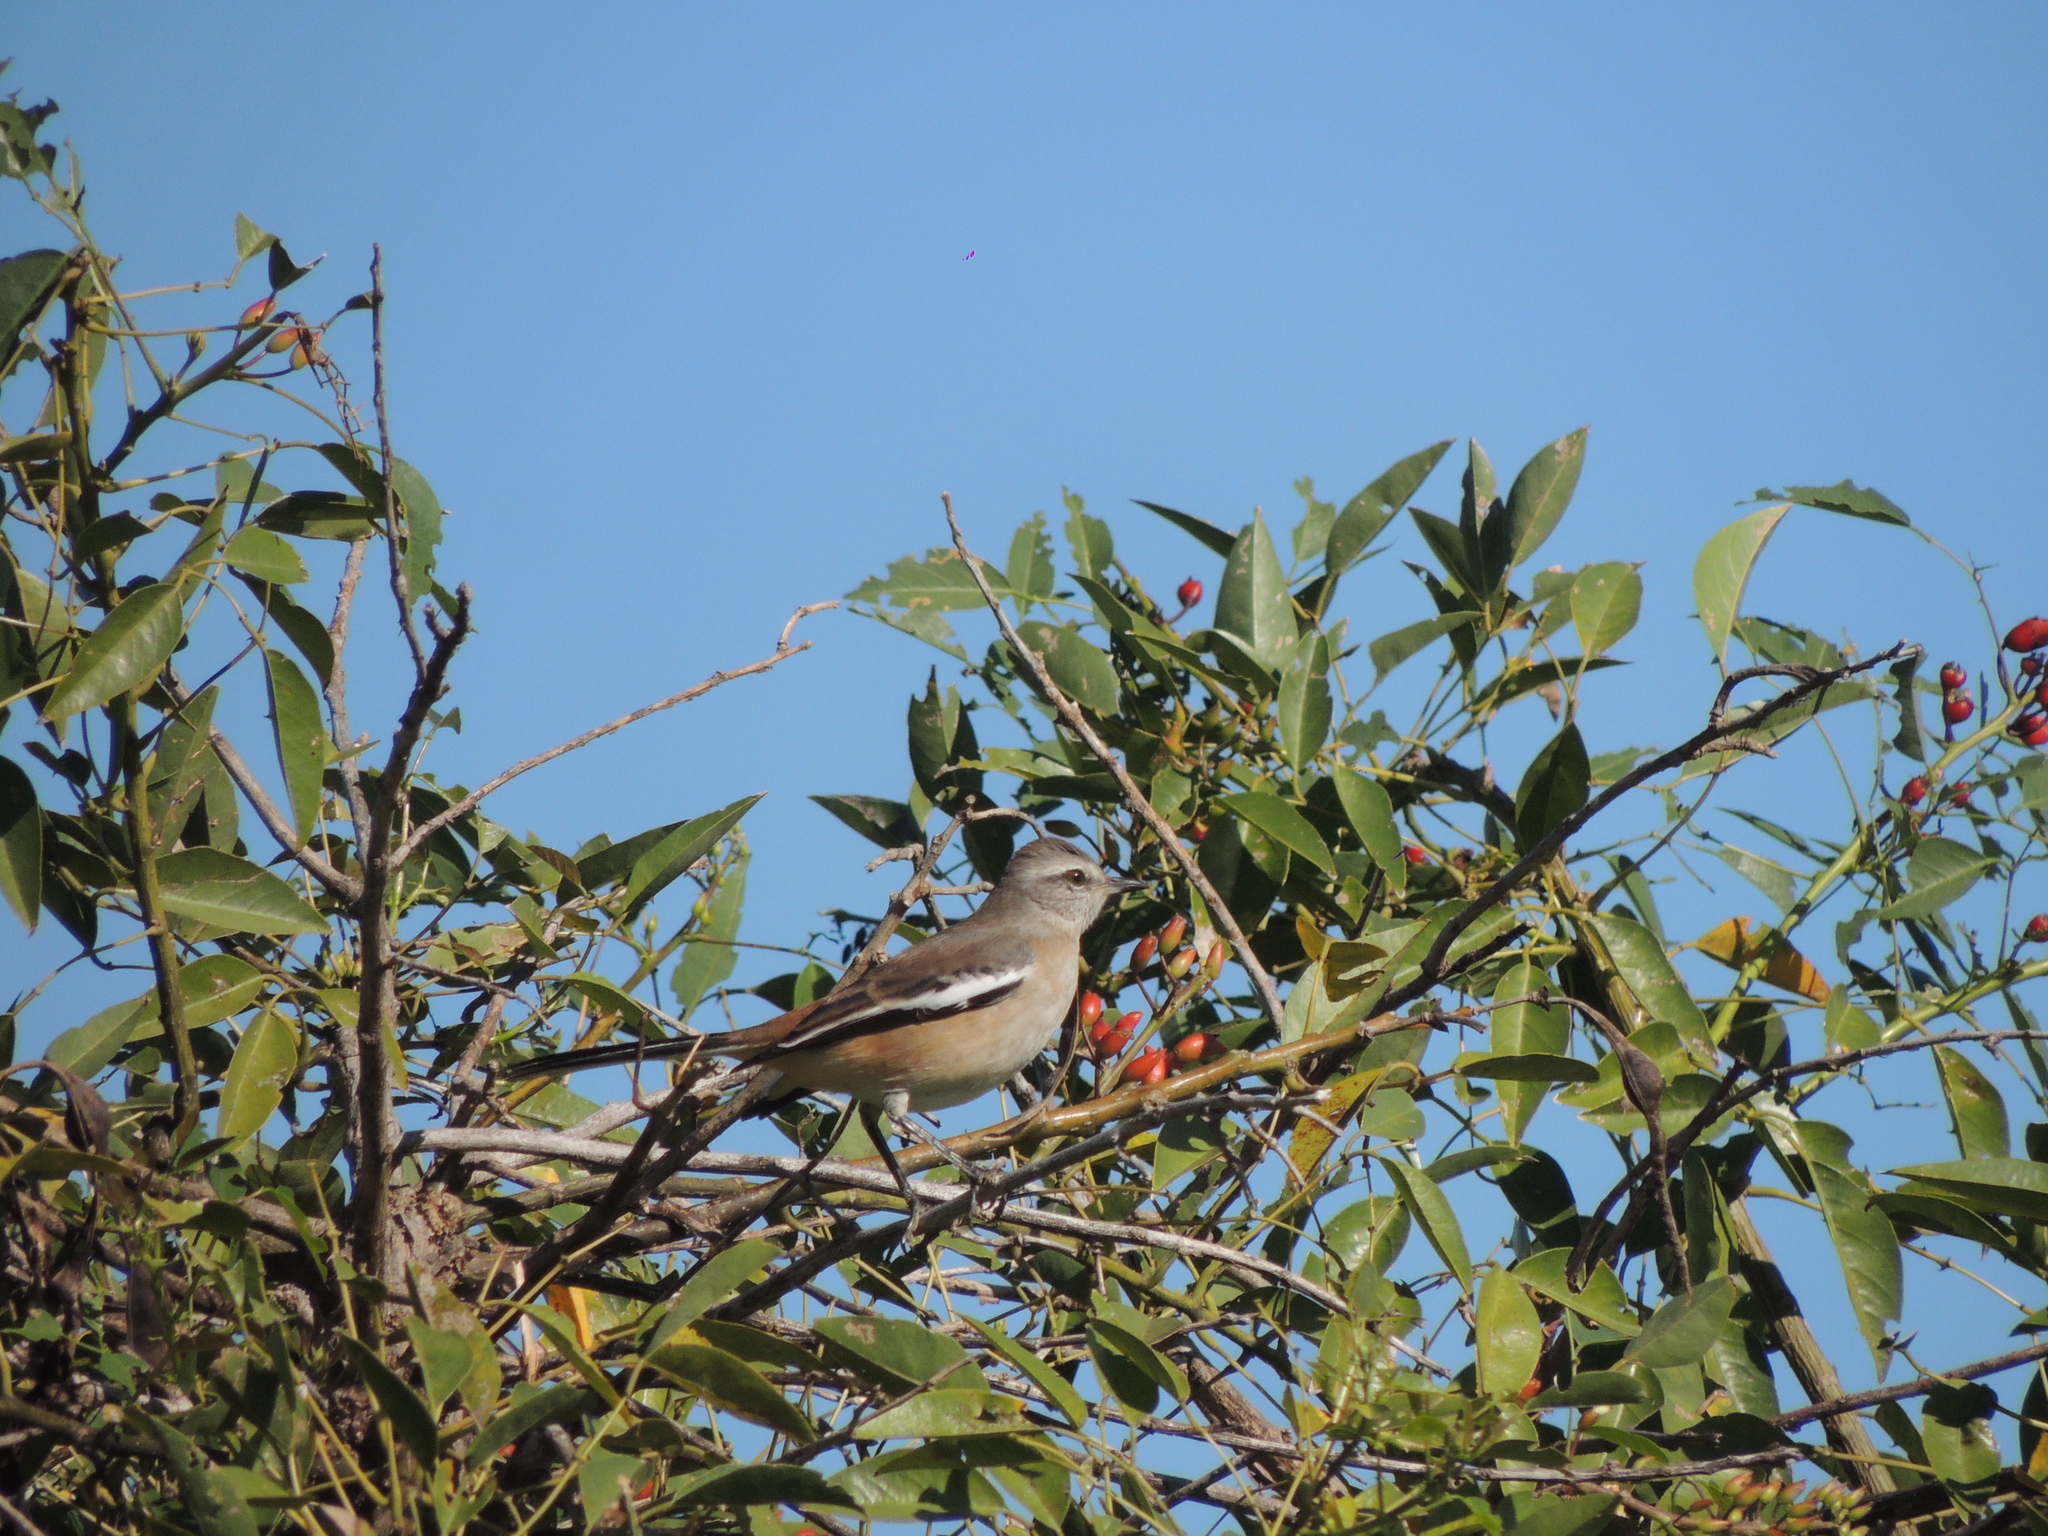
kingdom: Animalia
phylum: Chordata
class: Aves
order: Passeriformes
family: Mimidae
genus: Mimus
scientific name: Mimus triurus
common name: White-banded mockingbird
